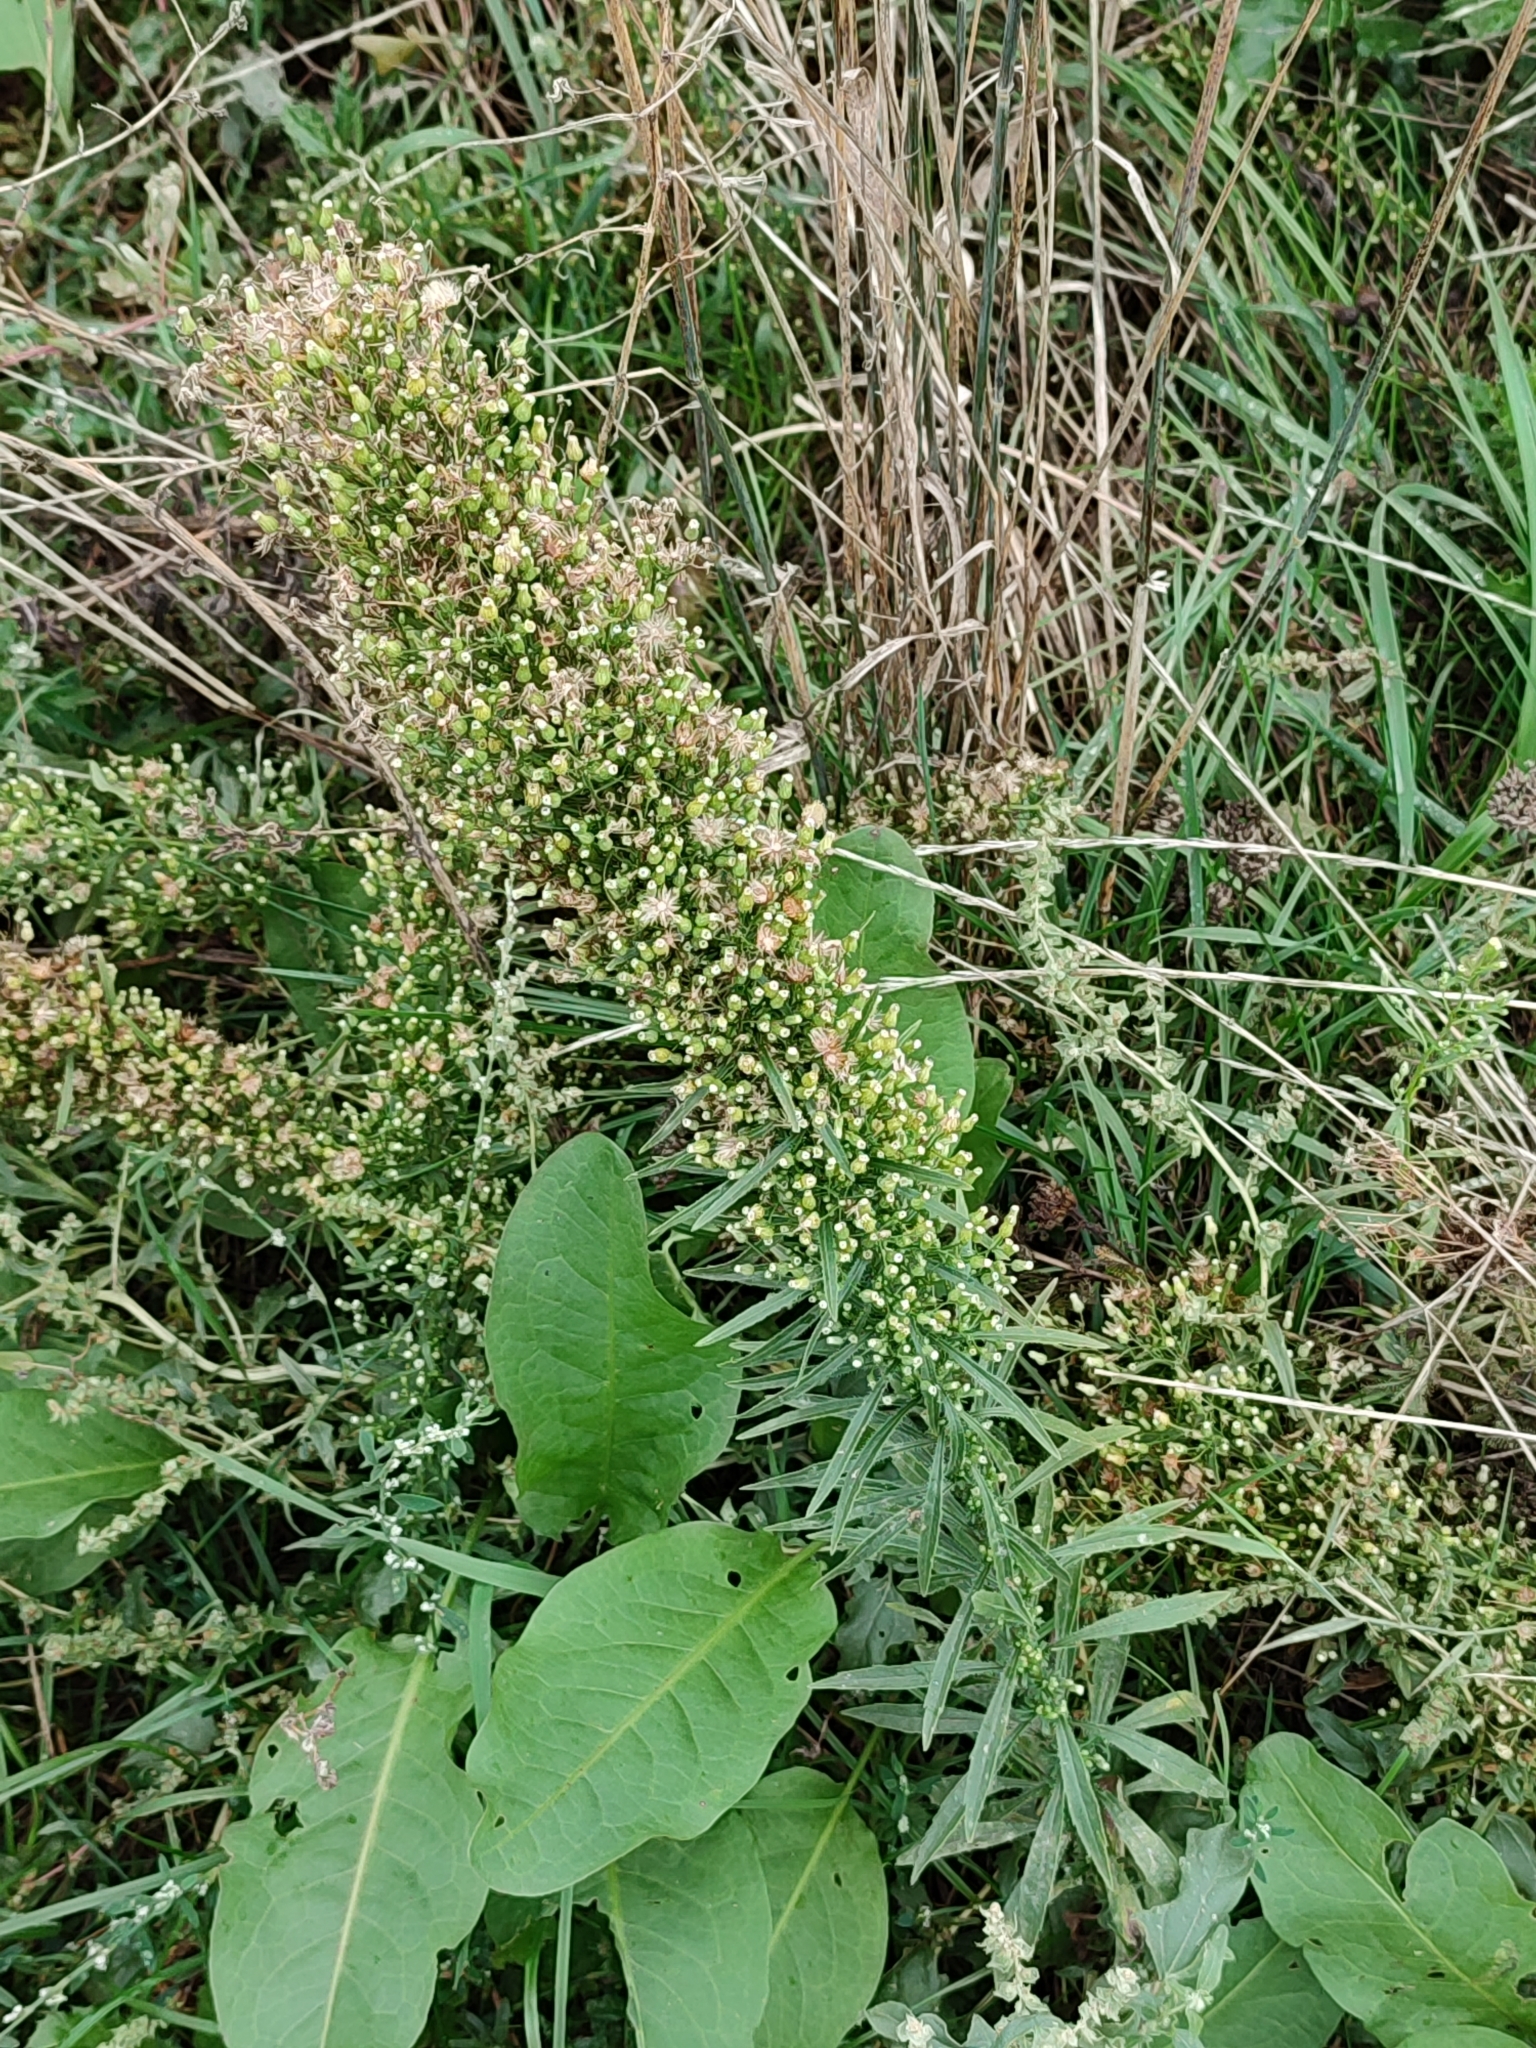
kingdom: Plantae
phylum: Tracheophyta
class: Magnoliopsida
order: Asterales
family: Asteraceae
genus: Erigeron
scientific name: Erigeron canadensis
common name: Canadian fleabane
